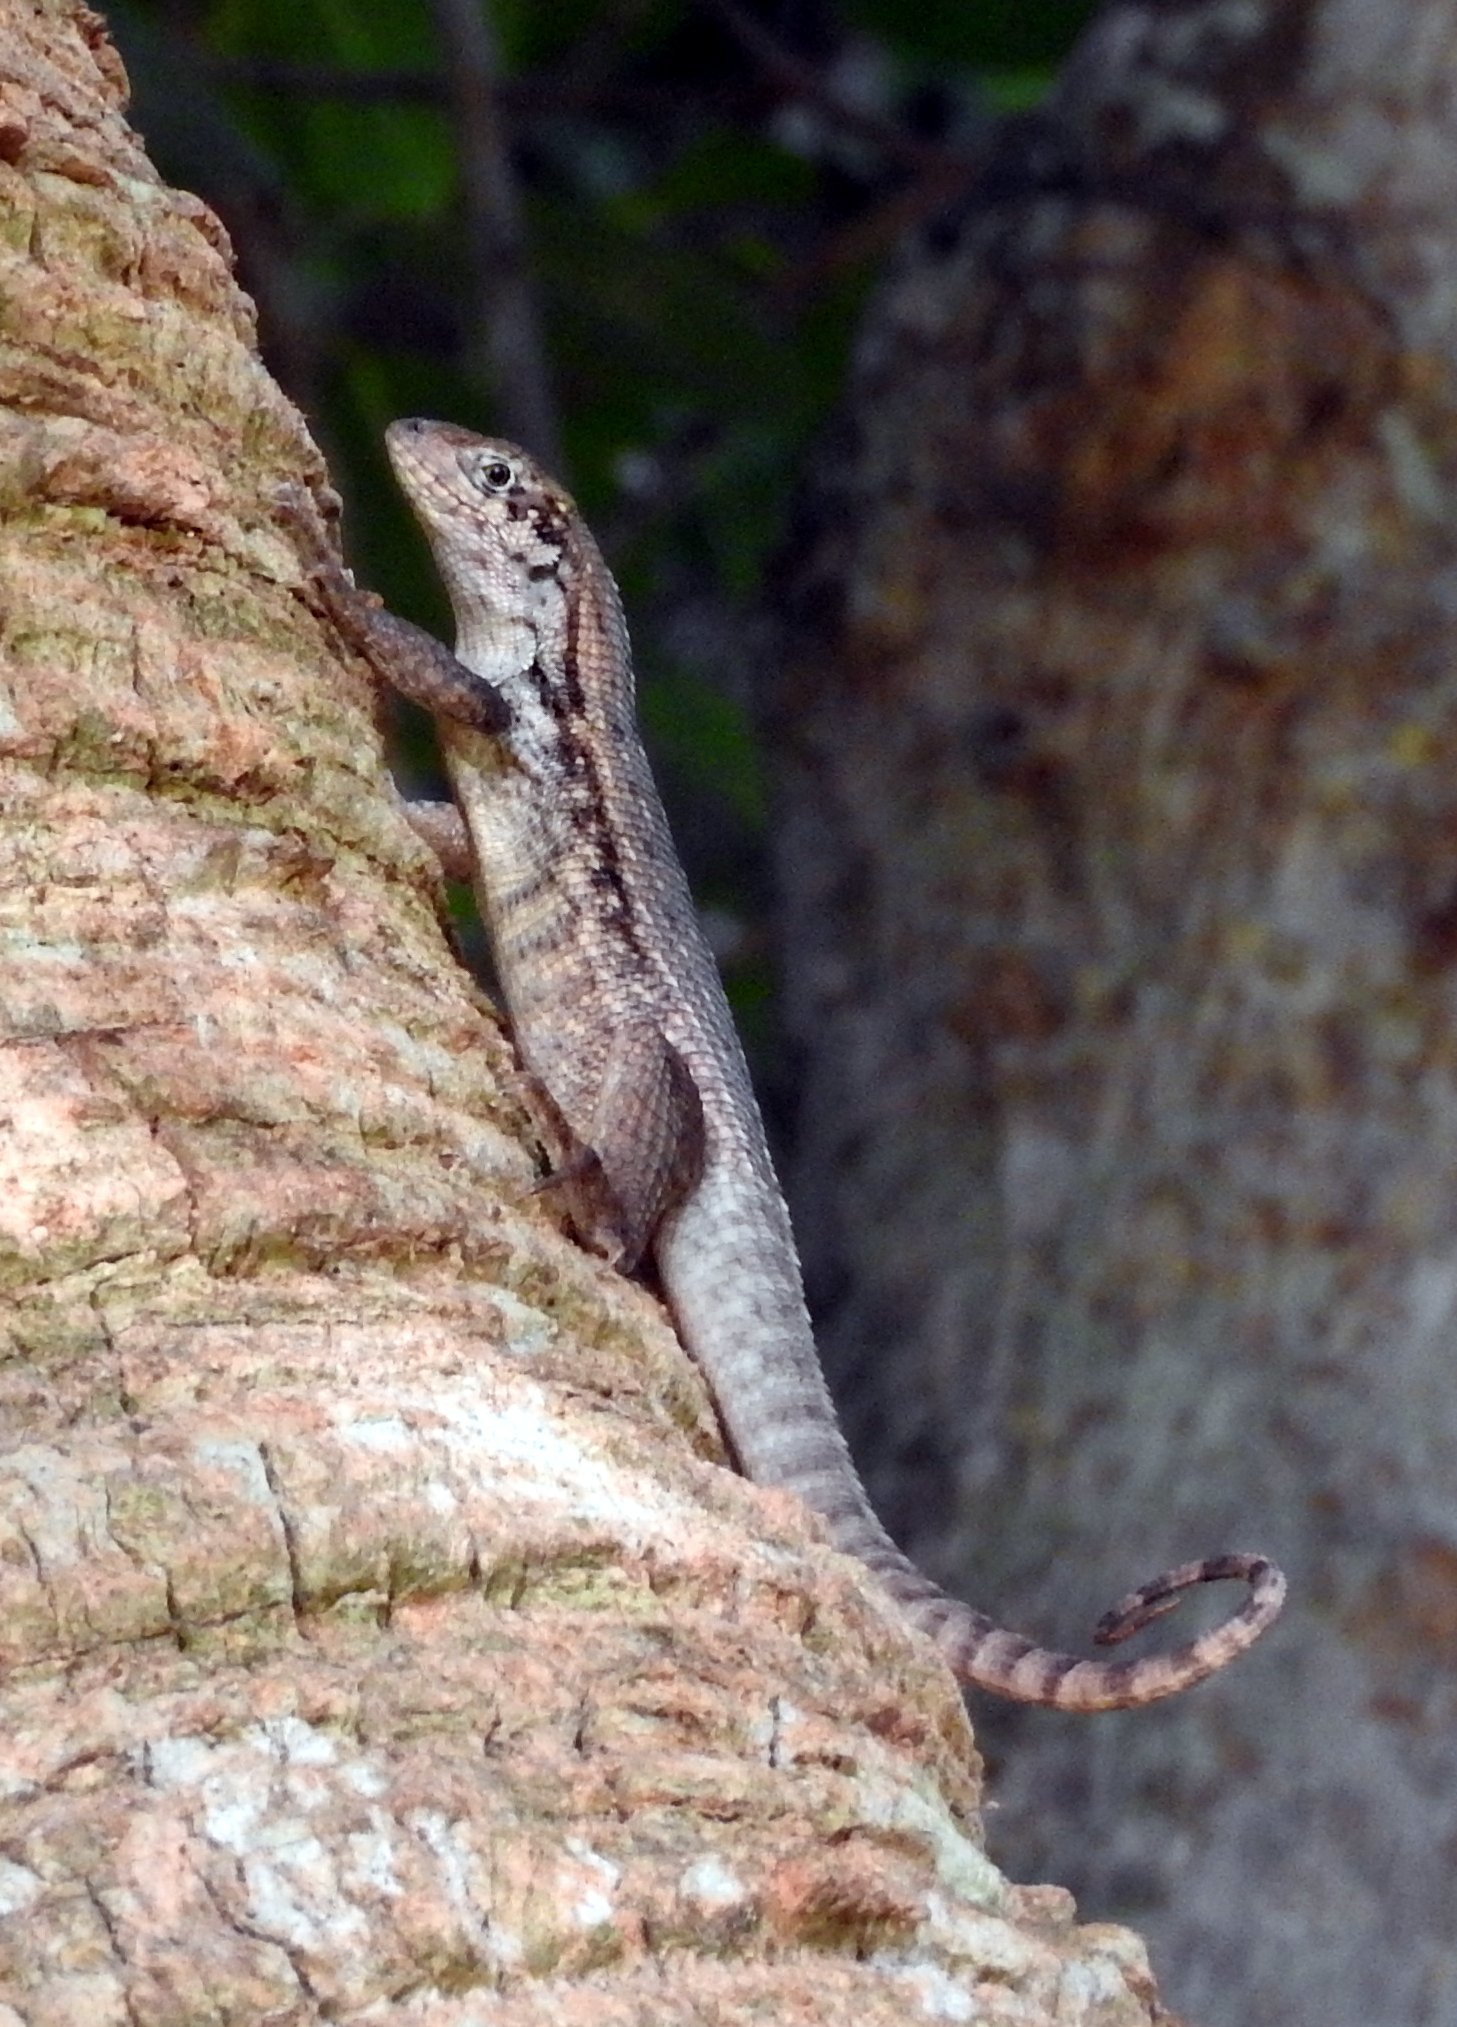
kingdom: Animalia
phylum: Chordata
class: Squamata
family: Leiocephalidae
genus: Leiocephalus
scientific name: Leiocephalus carinatus
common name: Northern curly-tailed lizard
